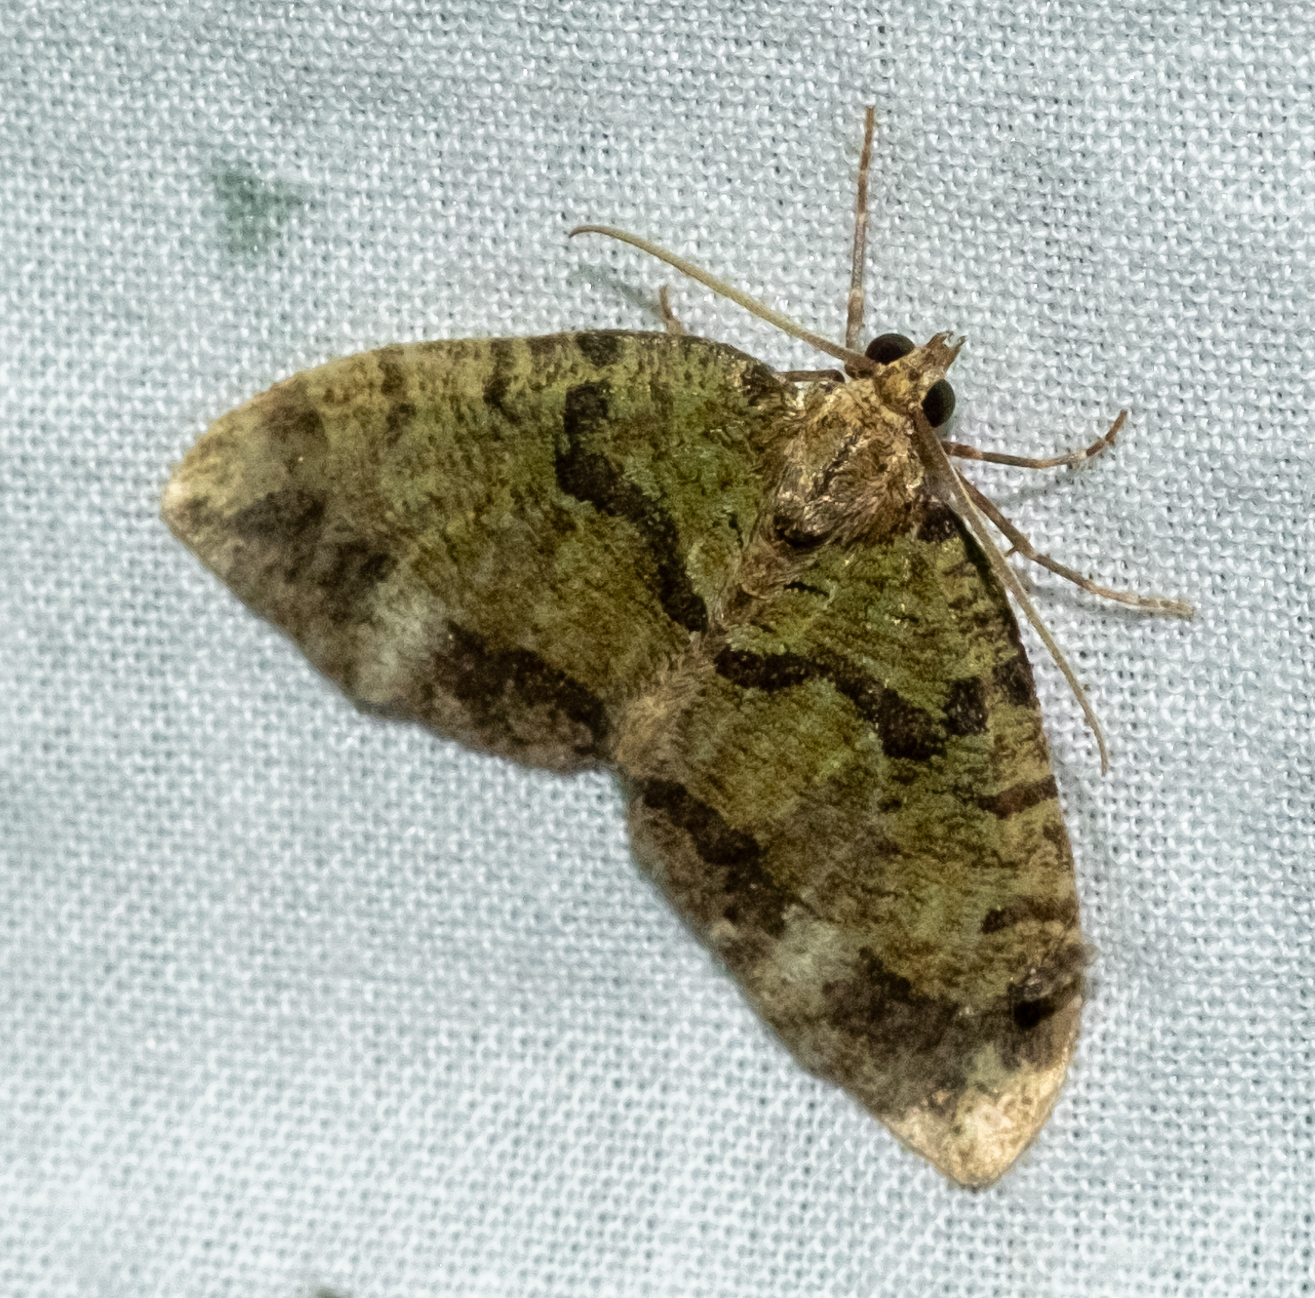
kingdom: Animalia
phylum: Arthropoda
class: Insecta
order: Lepidoptera
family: Geometridae
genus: Hydriomena
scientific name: Hydriomena furcata
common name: July highflyer
